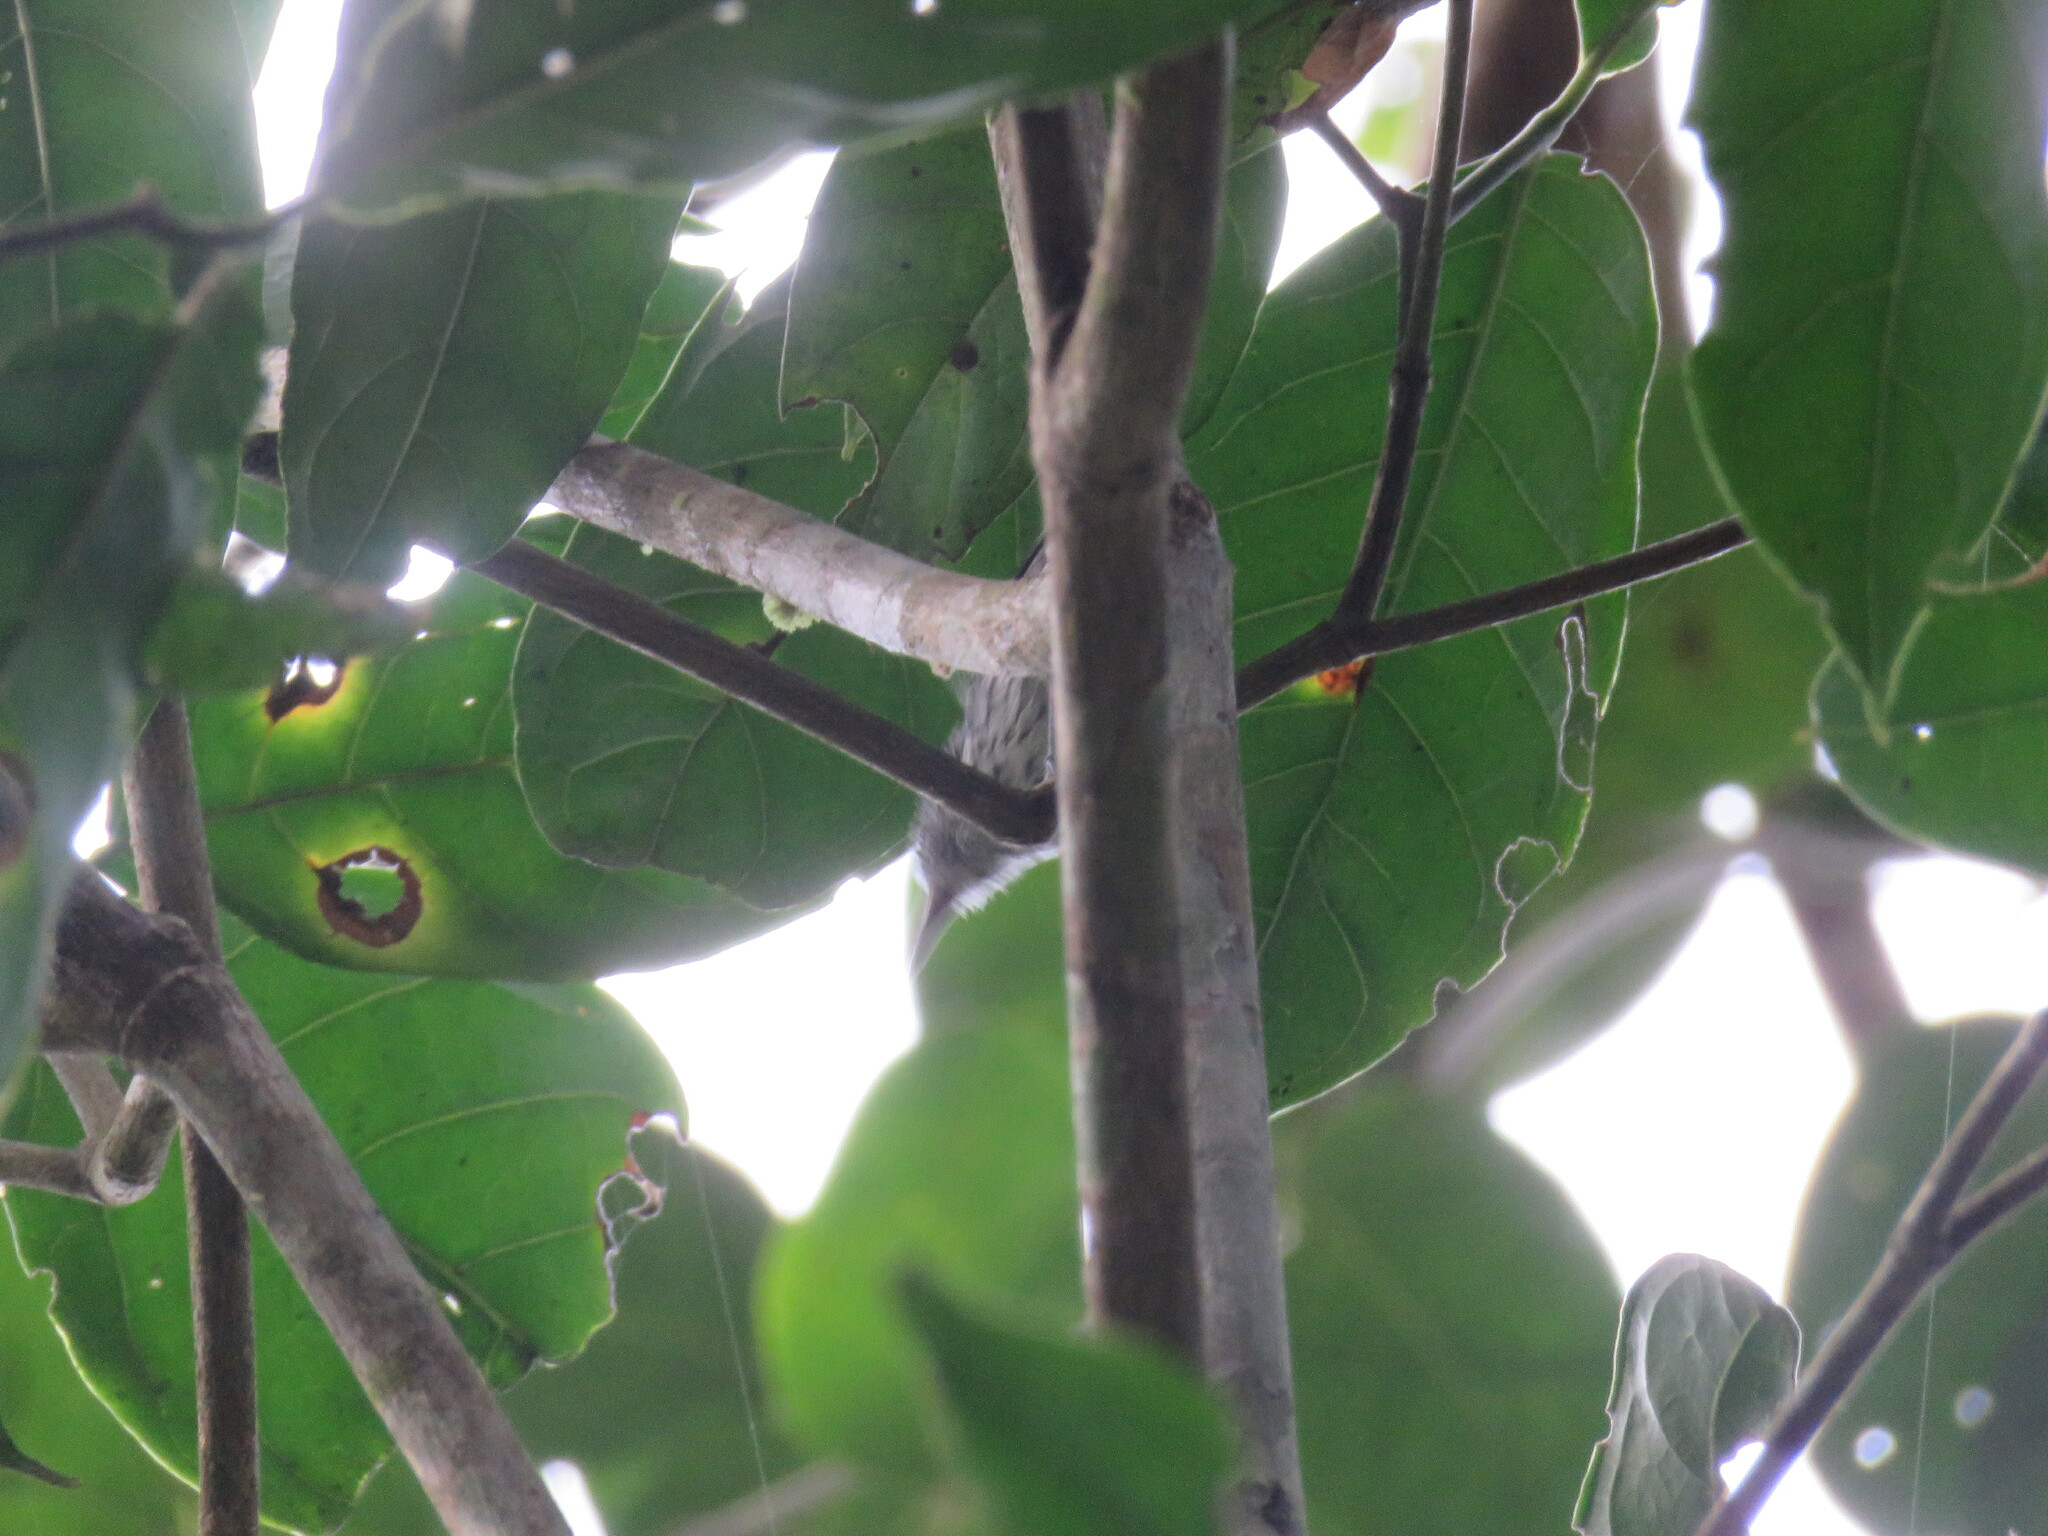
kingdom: Animalia
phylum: Chordata
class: Aves
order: Passeriformes
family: Thamnophilidae
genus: Myrmotherula
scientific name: Myrmotherula multostriata
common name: Amazonian streaked antwren
